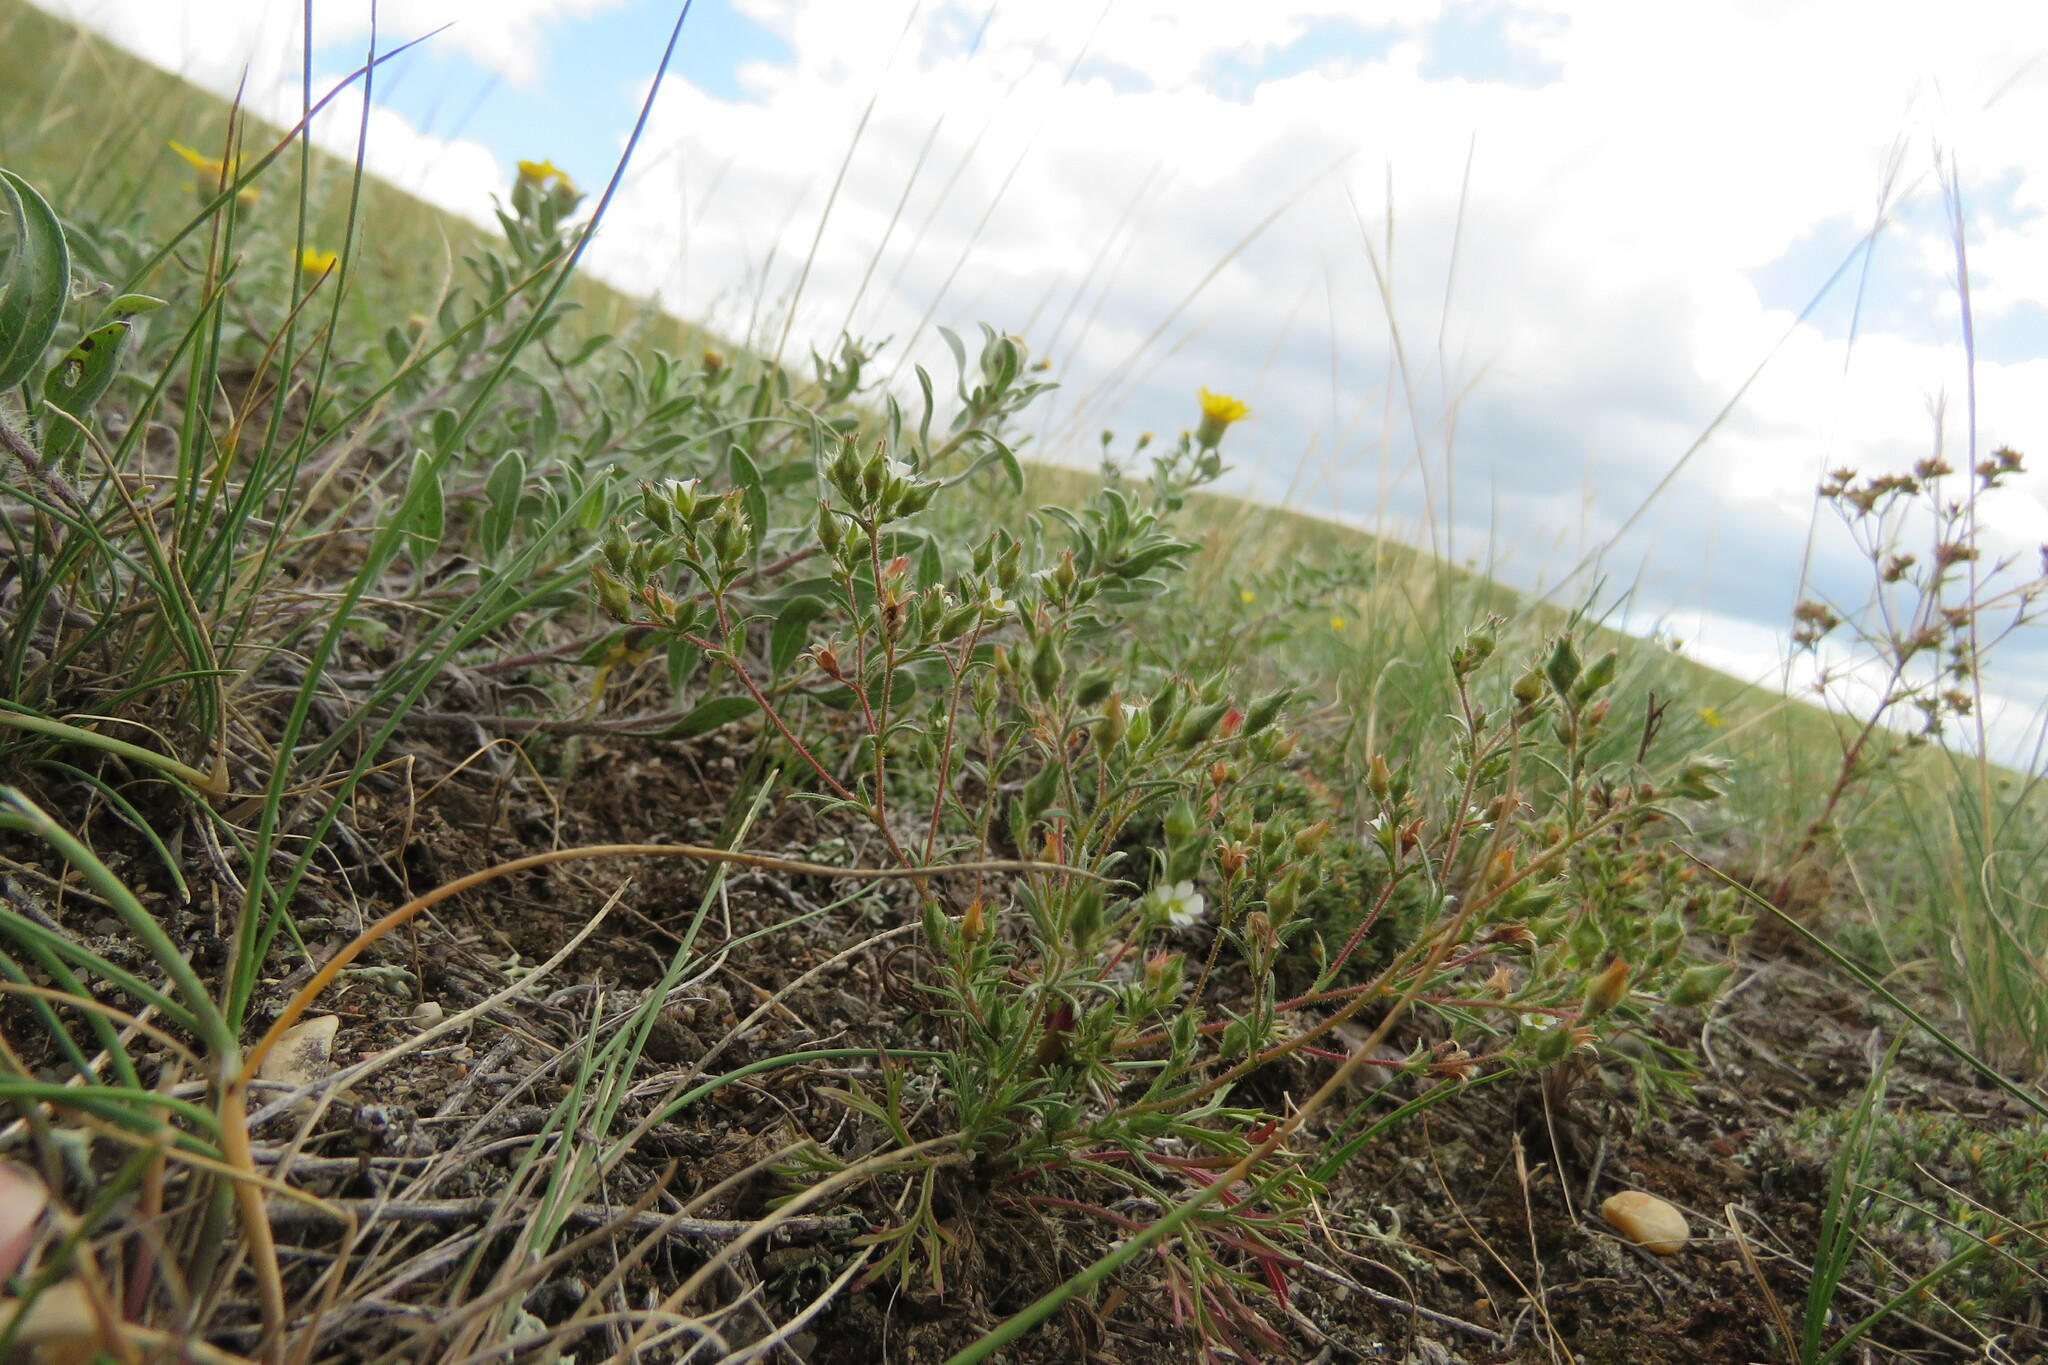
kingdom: Plantae
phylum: Tracheophyta
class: Magnoliopsida
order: Rosales
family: Rosaceae
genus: Chamaerhodos
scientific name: Chamaerhodos erecta
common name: American chamaerhodos
